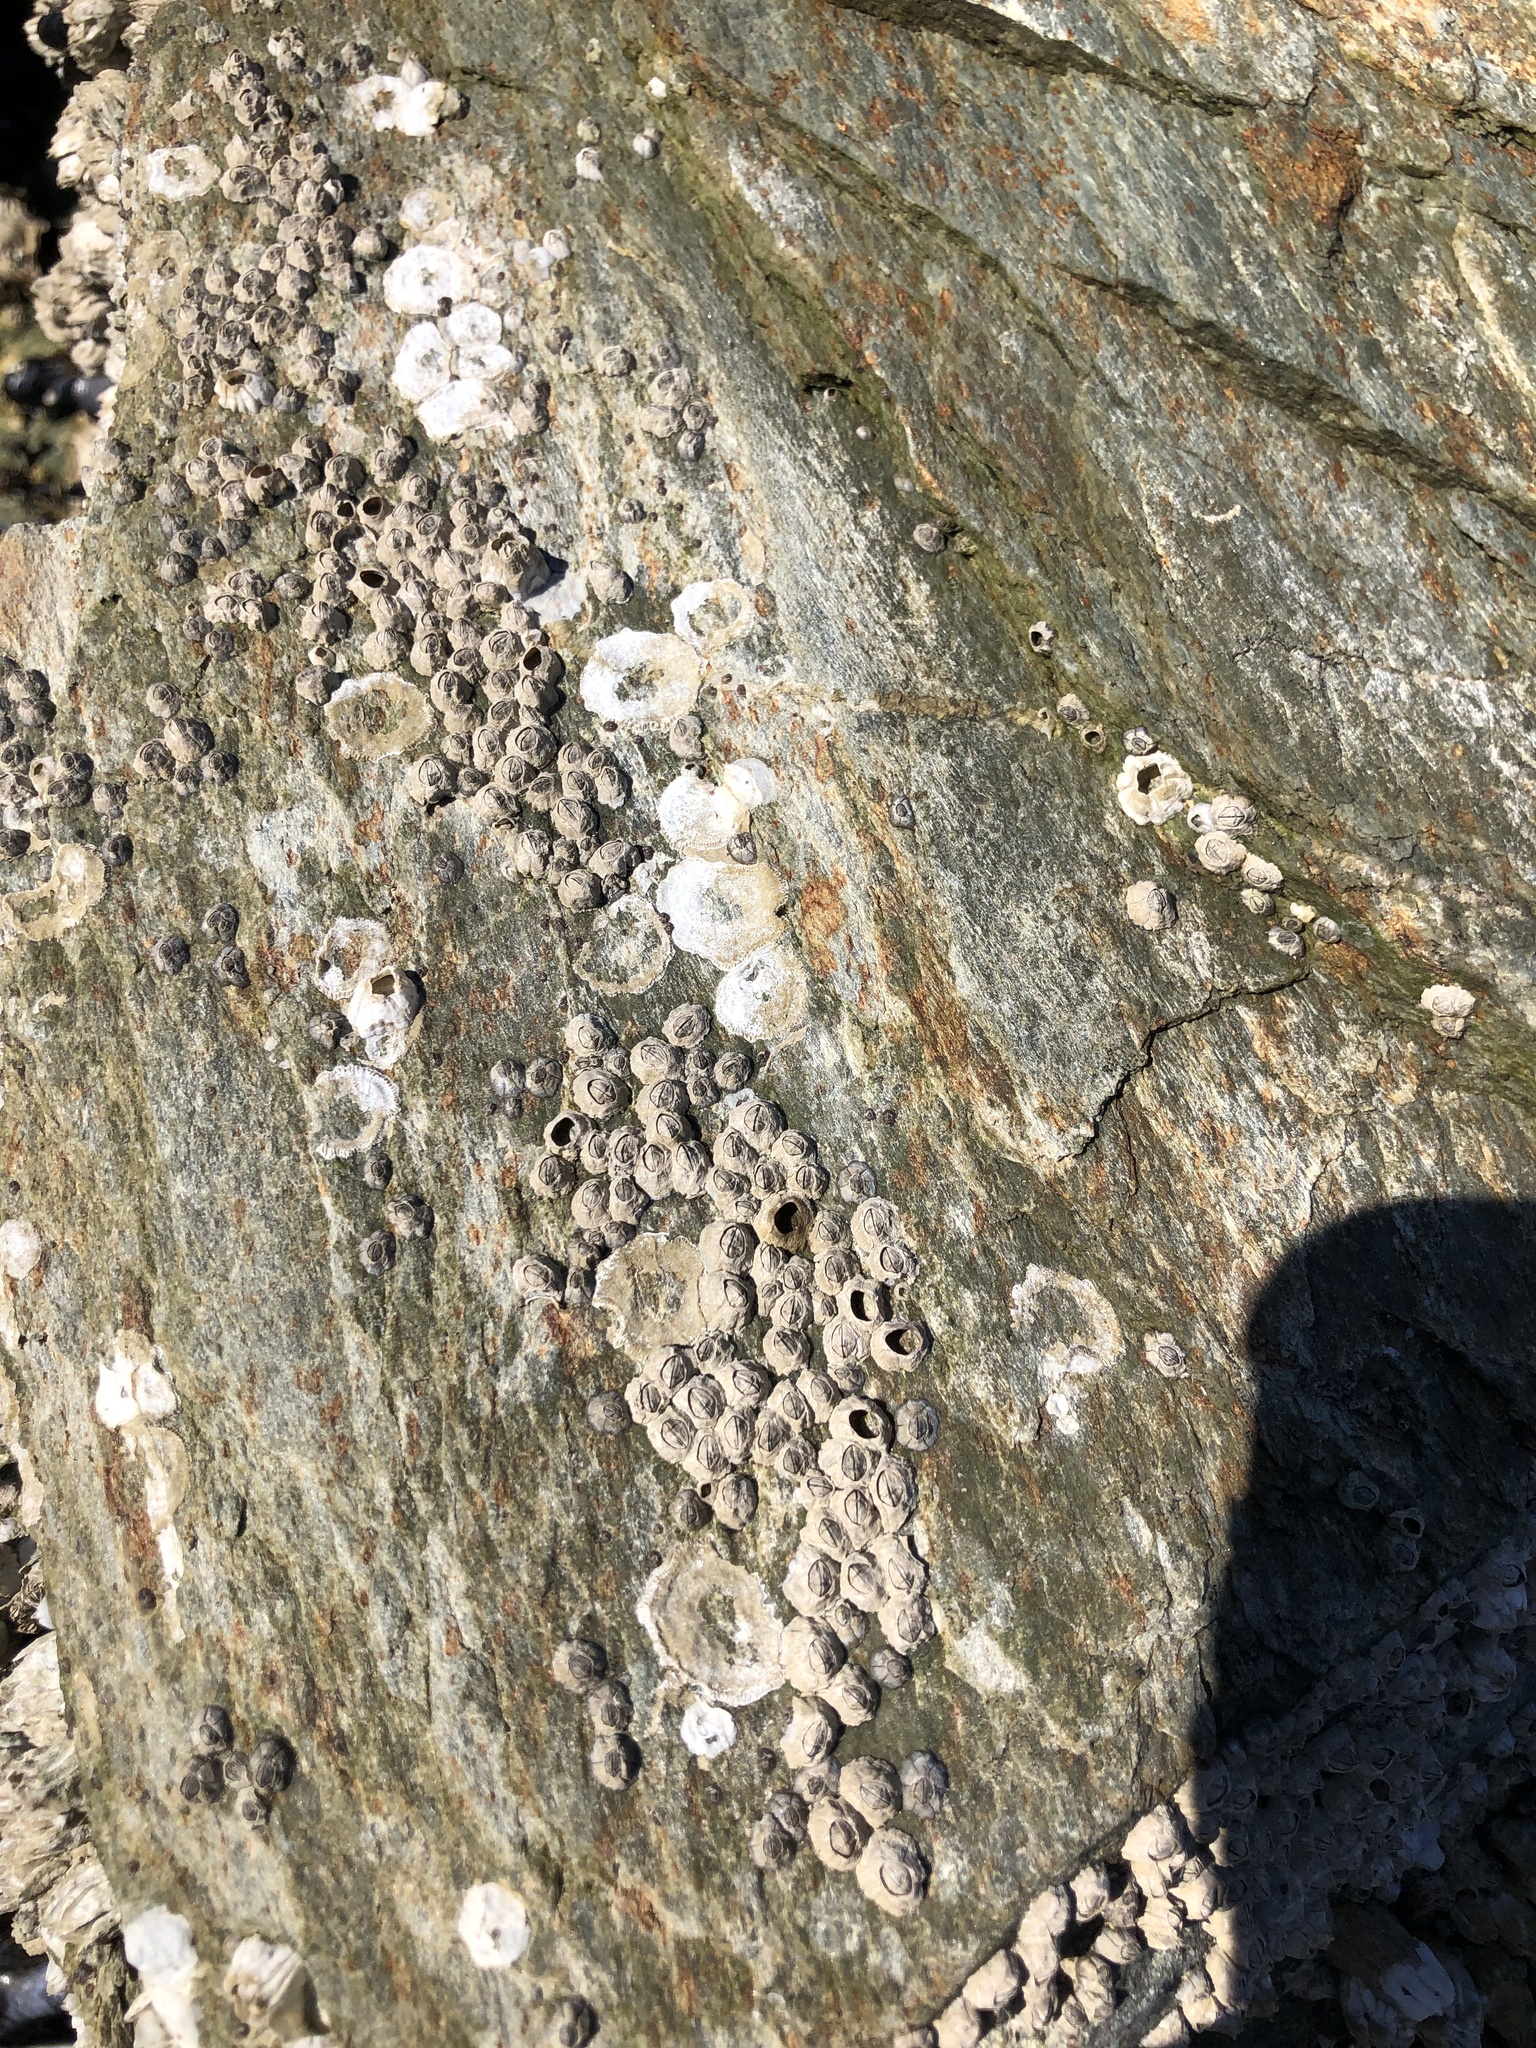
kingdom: Animalia
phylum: Arthropoda
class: Maxillopoda
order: Sessilia
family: Chthamalidae
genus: Chthamalus
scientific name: Chthamalus dalli
